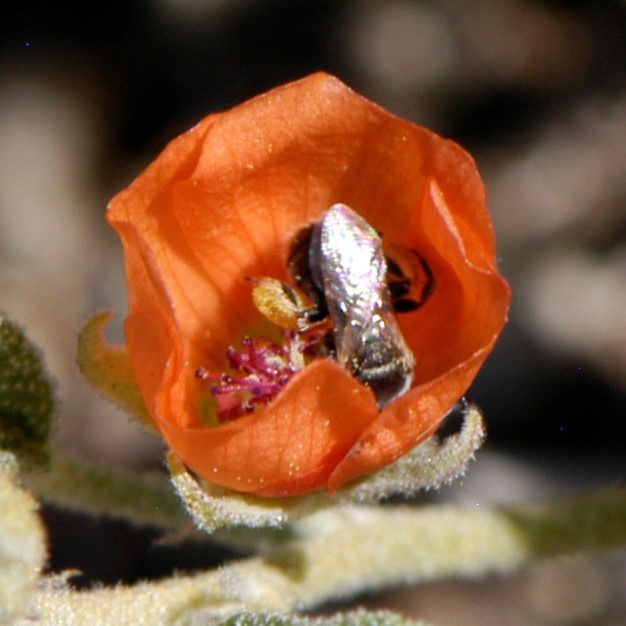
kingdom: Animalia
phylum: Arthropoda
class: Insecta
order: Hymenoptera
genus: Macroteropsis
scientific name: Macroteropsis
